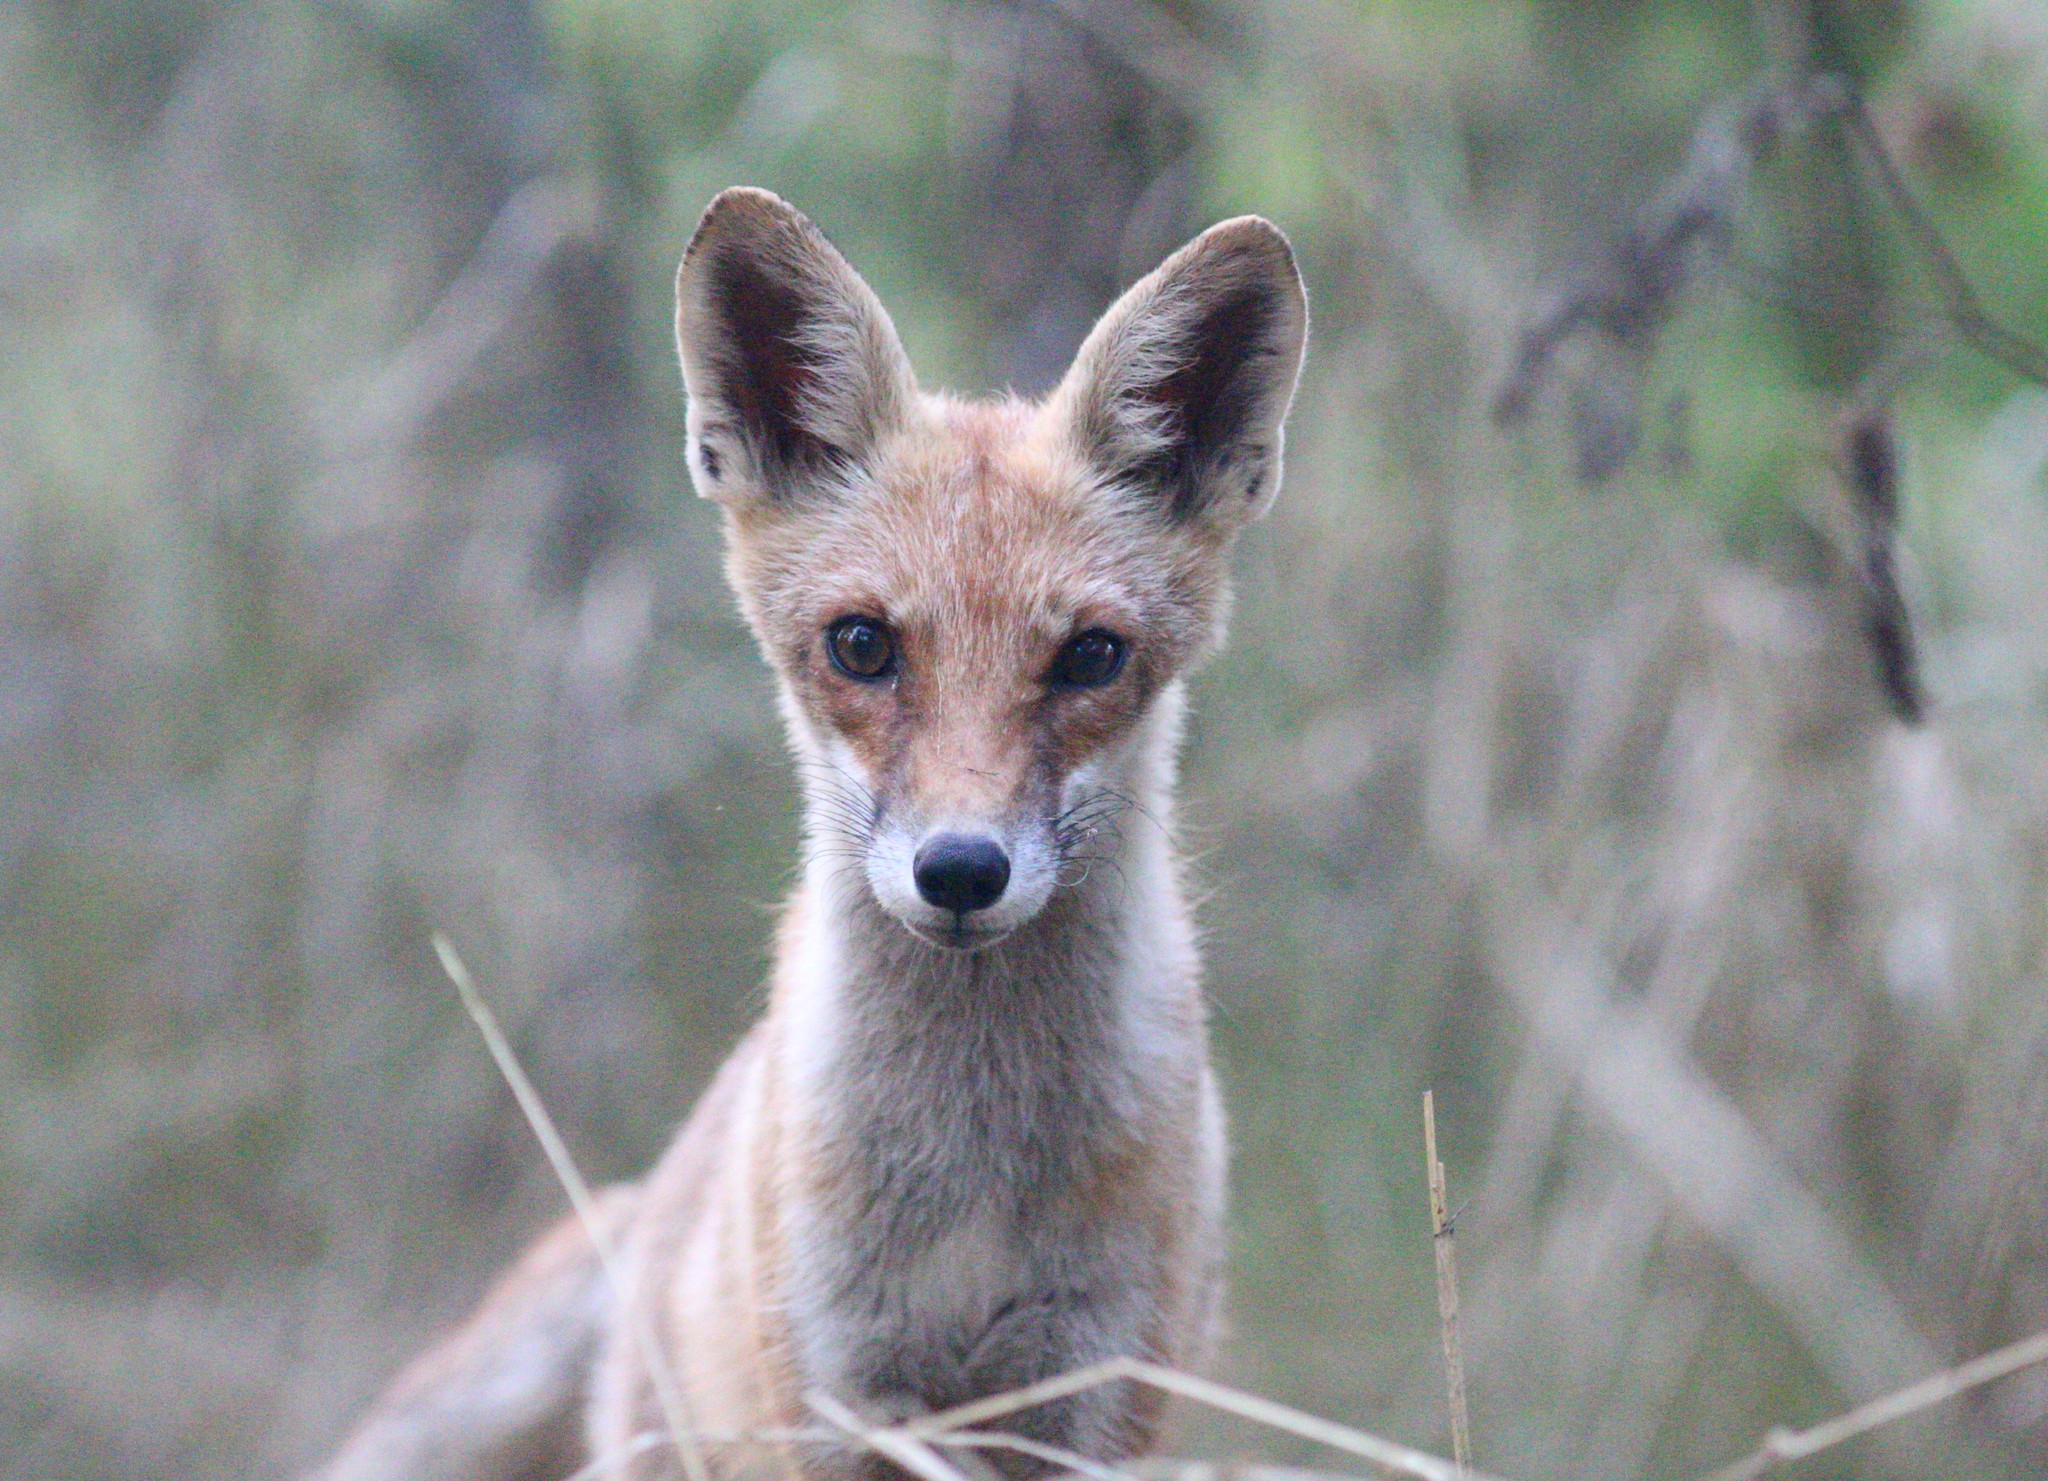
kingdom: Animalia
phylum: Chordata
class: Mammalia
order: Carnivora
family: Canidae
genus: Vulpes
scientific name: Vulpes vulpes
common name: Red fox
